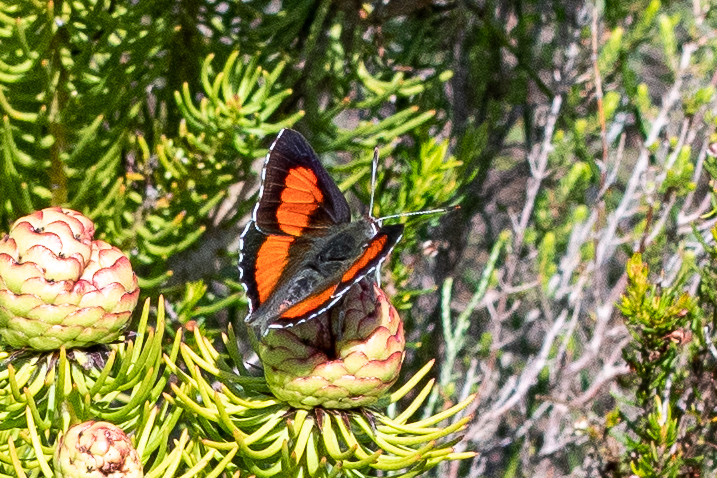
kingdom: Animalia
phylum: Arthropoda
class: Insecta
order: Lepidoptera
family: Lycaenidae
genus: Capys
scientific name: Capys alpheus
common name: Orange-banded protea butterfly
